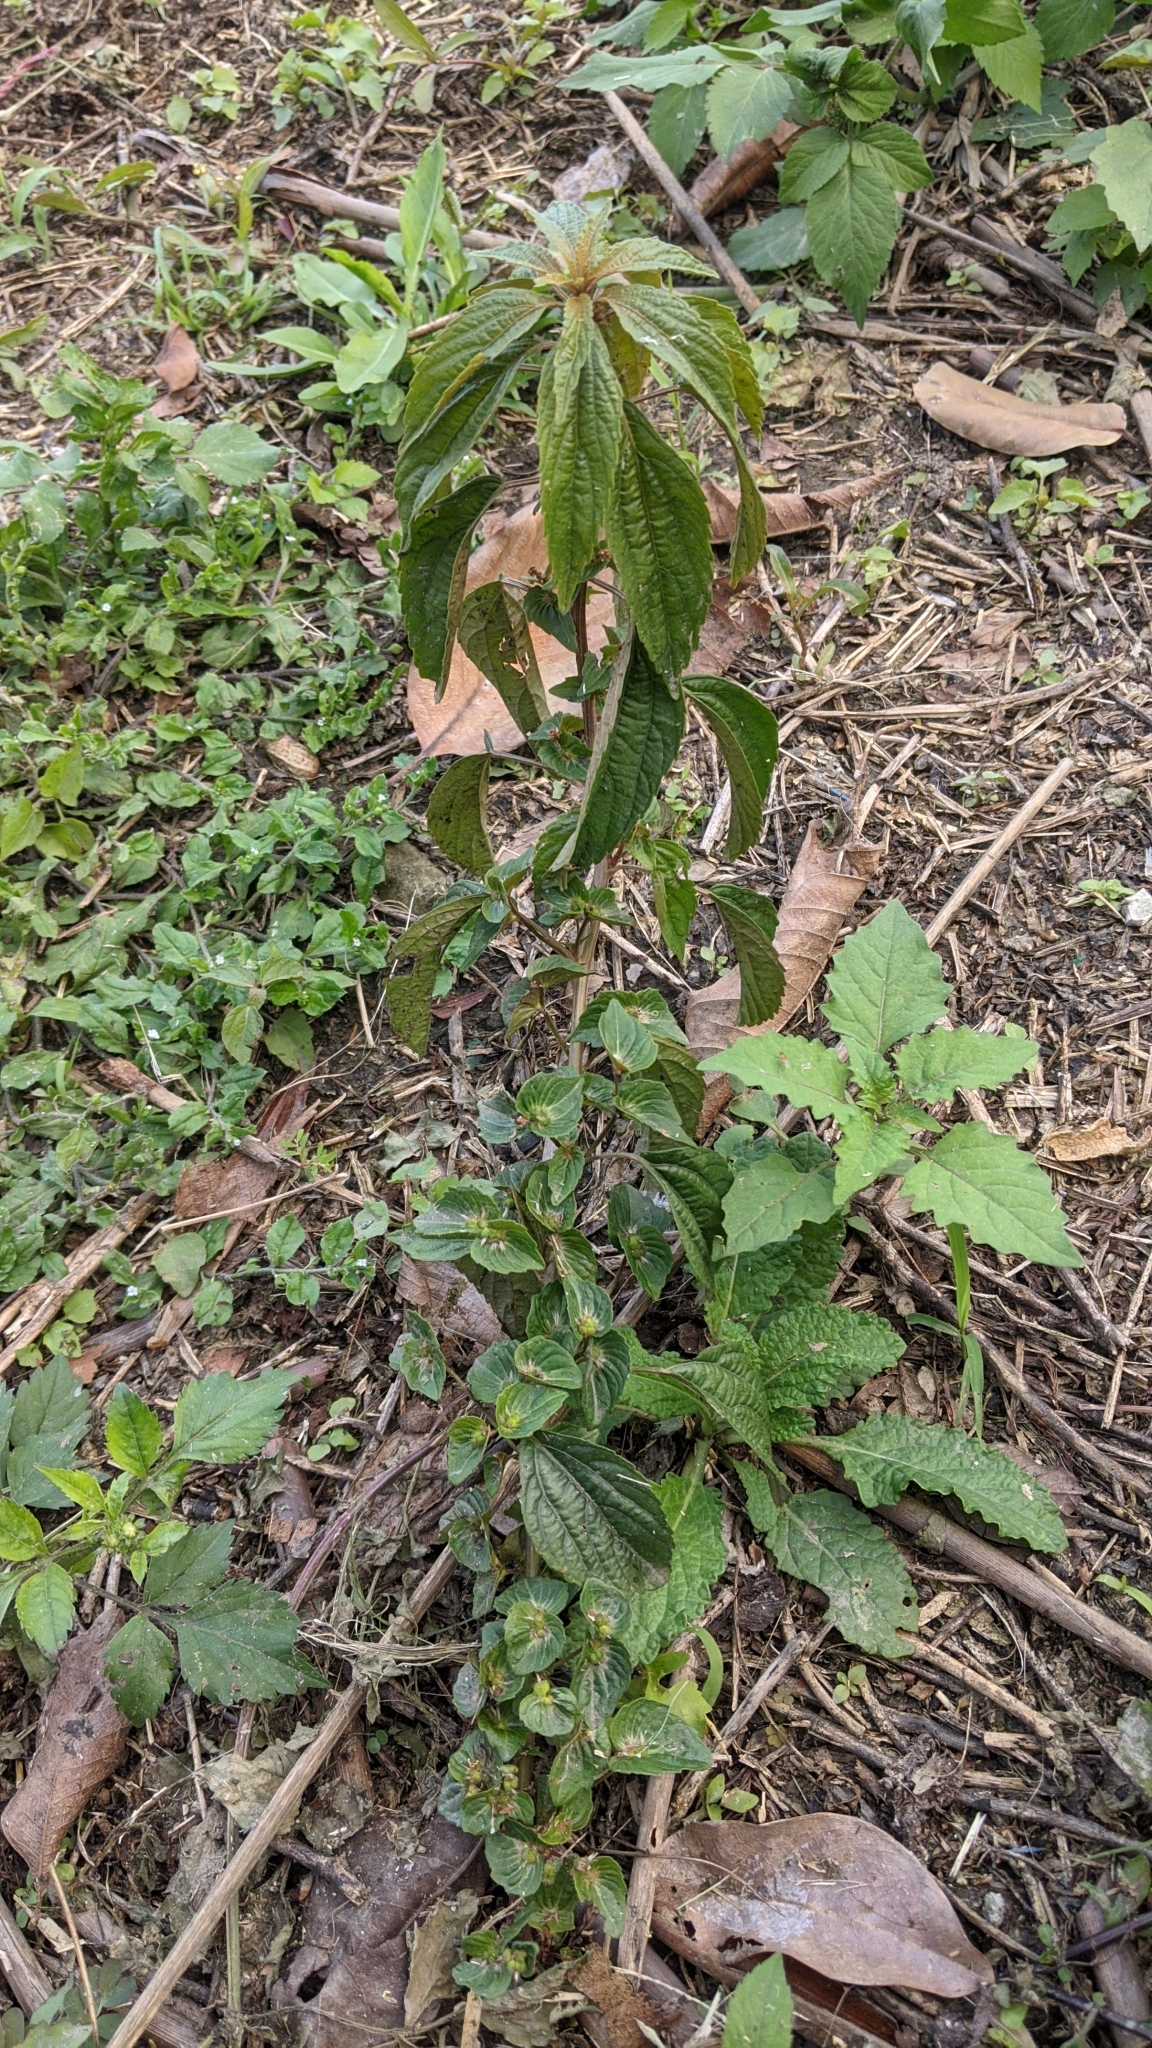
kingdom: Plantae
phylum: Tracheophyta
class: Magnoliopsida
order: Malpighiales
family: Euphorbiaceae
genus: Acalypha
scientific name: Acalypha australis
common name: Asian copperleaf
